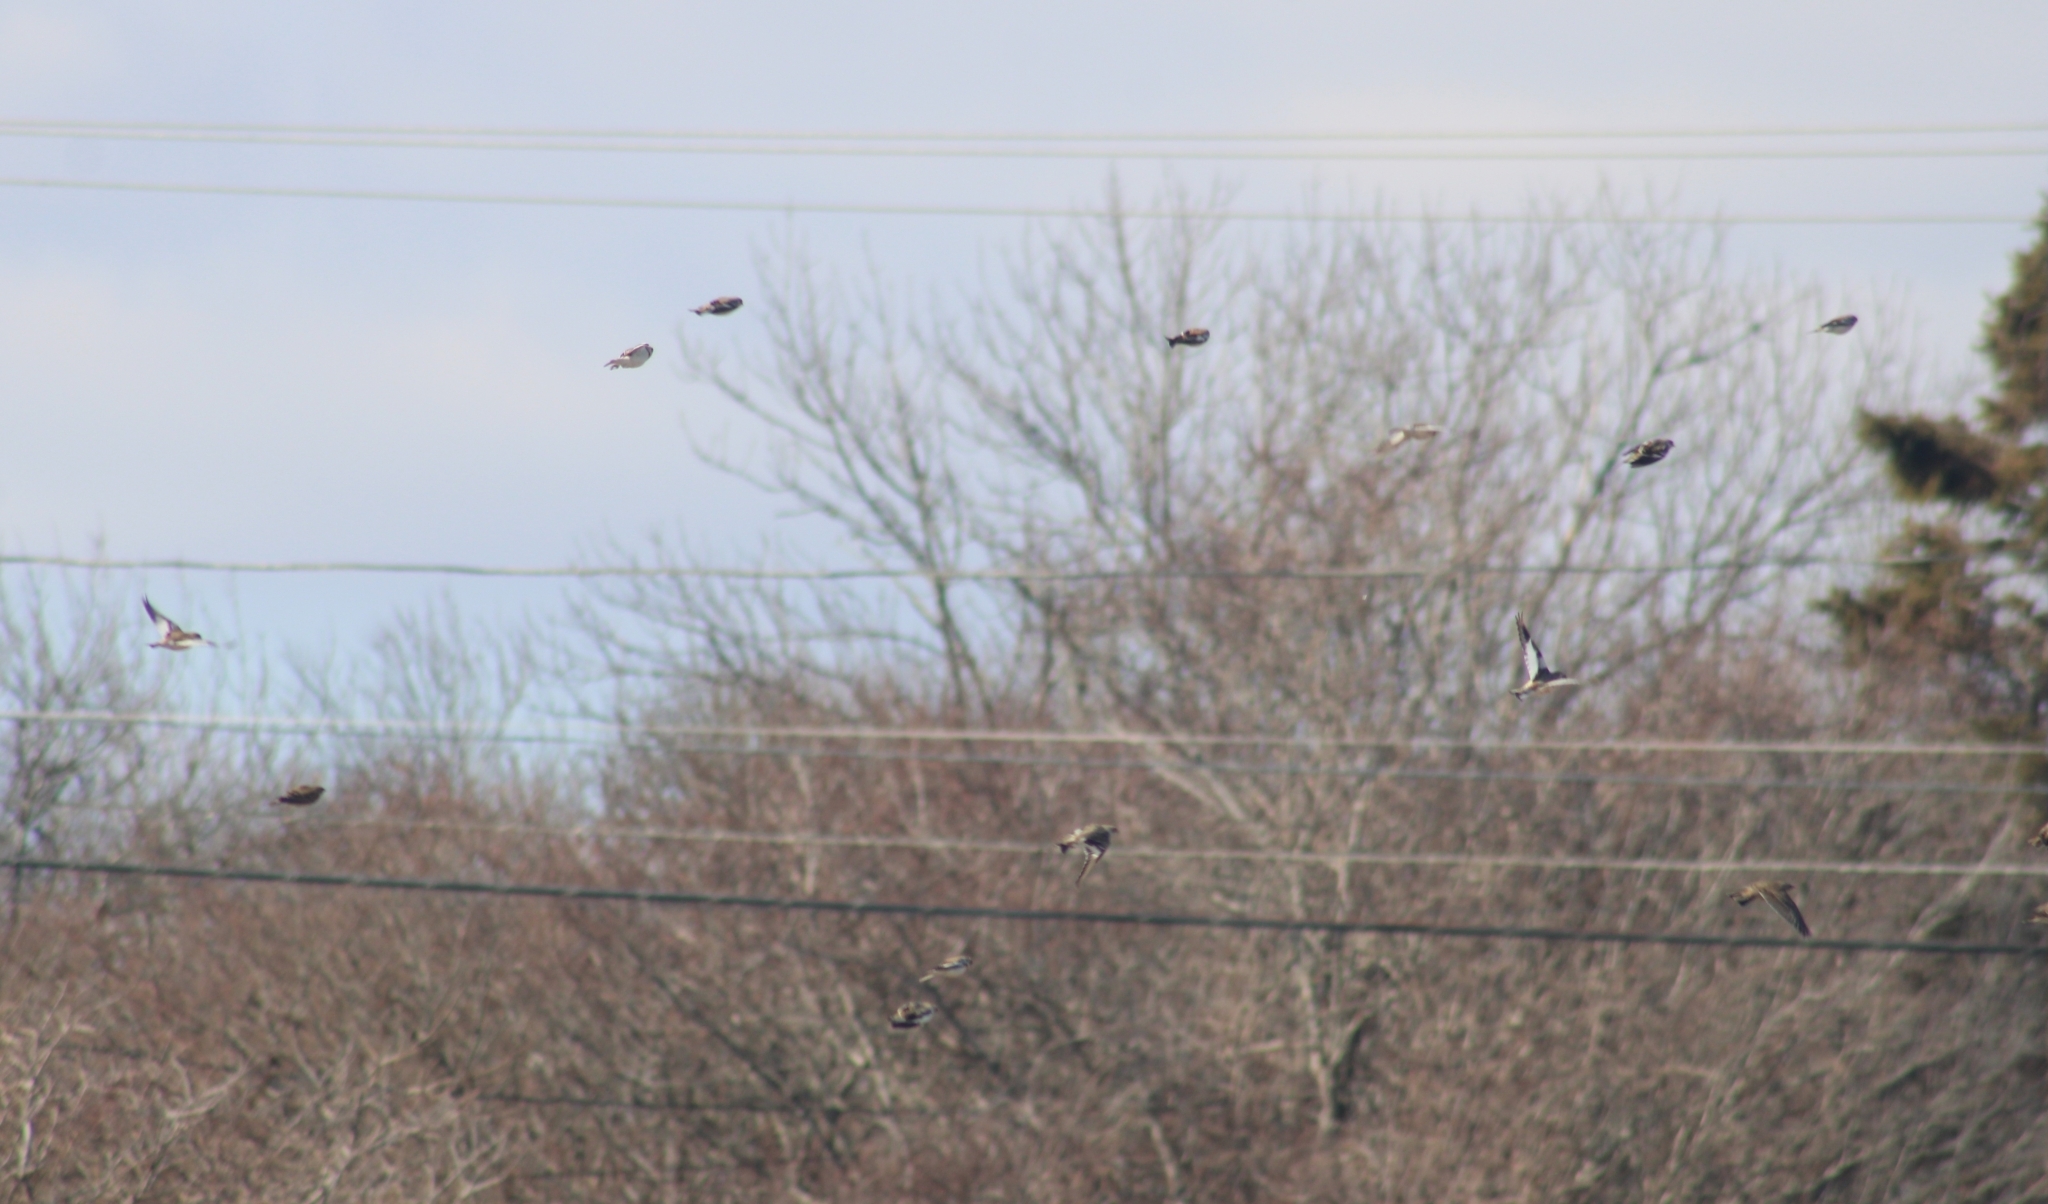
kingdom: Animalia
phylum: Chordata
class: Aves
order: Passeriformes
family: Calcariidae
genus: Plectrophenax
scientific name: Plectrophenax nivalis
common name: Snow bunting
